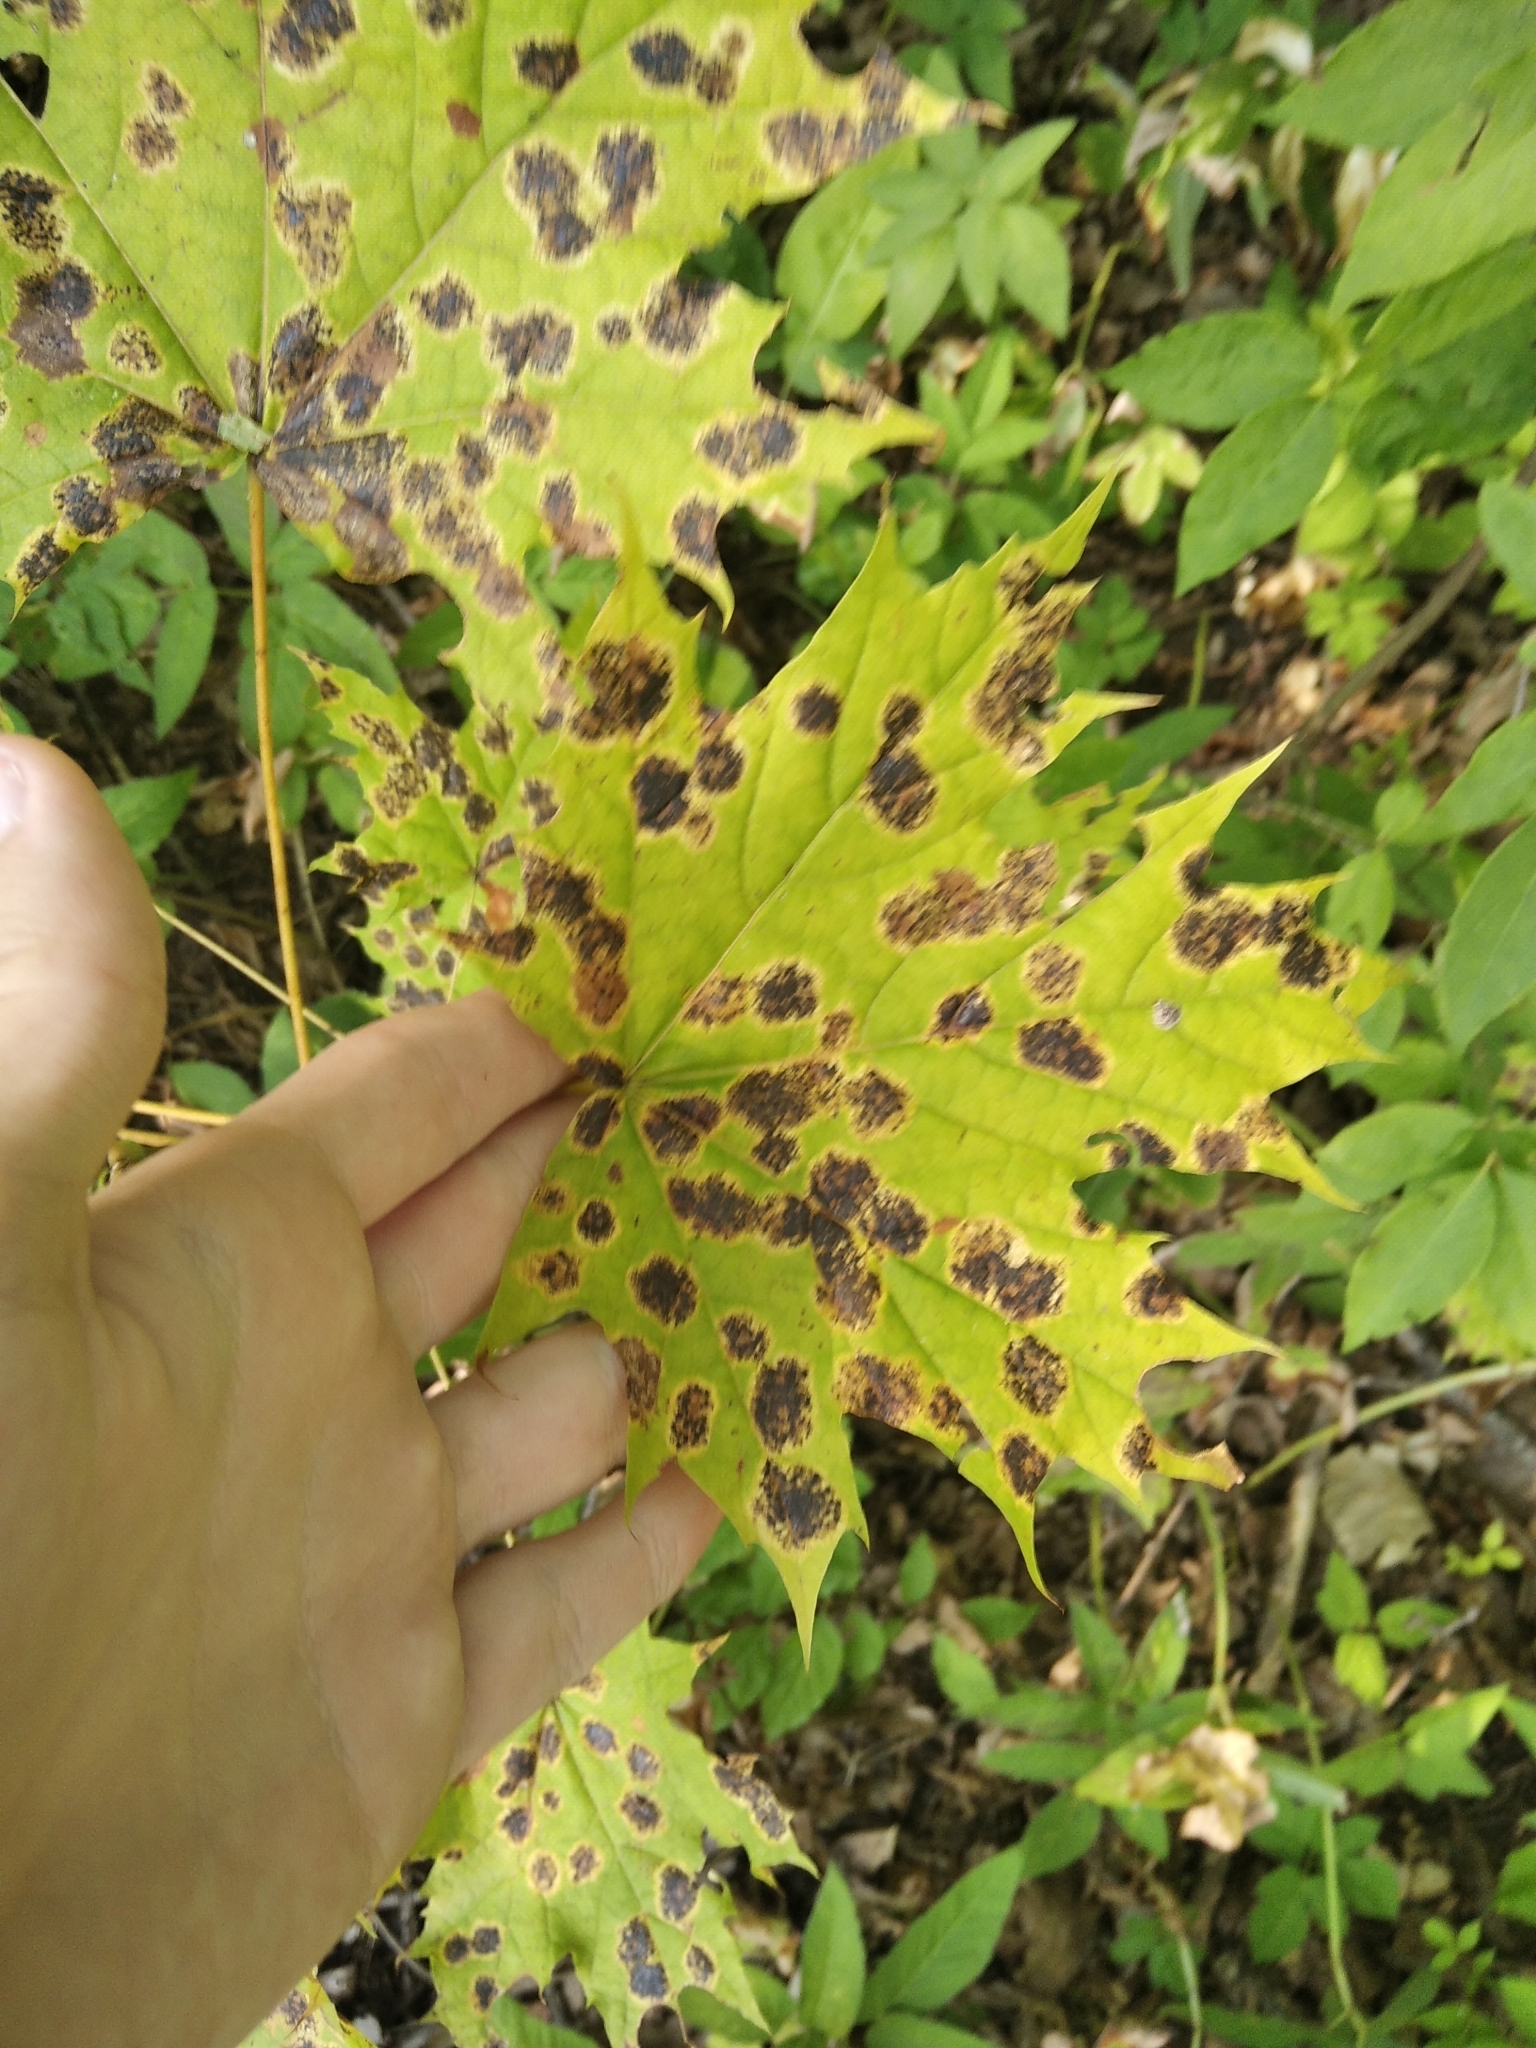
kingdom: Plantae
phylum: Tracheophyta
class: Magnoliopsida
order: Sapindales
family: Sapindaceae
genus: Acer
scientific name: Acer platanoides
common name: Norway maple
